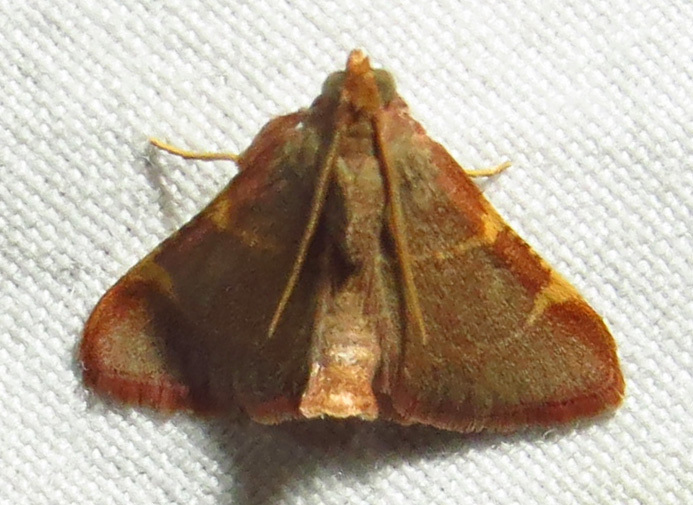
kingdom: Animalia
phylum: Arthropoda
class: Insecta
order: Lepidoptera
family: Pyralidae
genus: Hypsopygia
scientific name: Hypsopygia binodulalis
